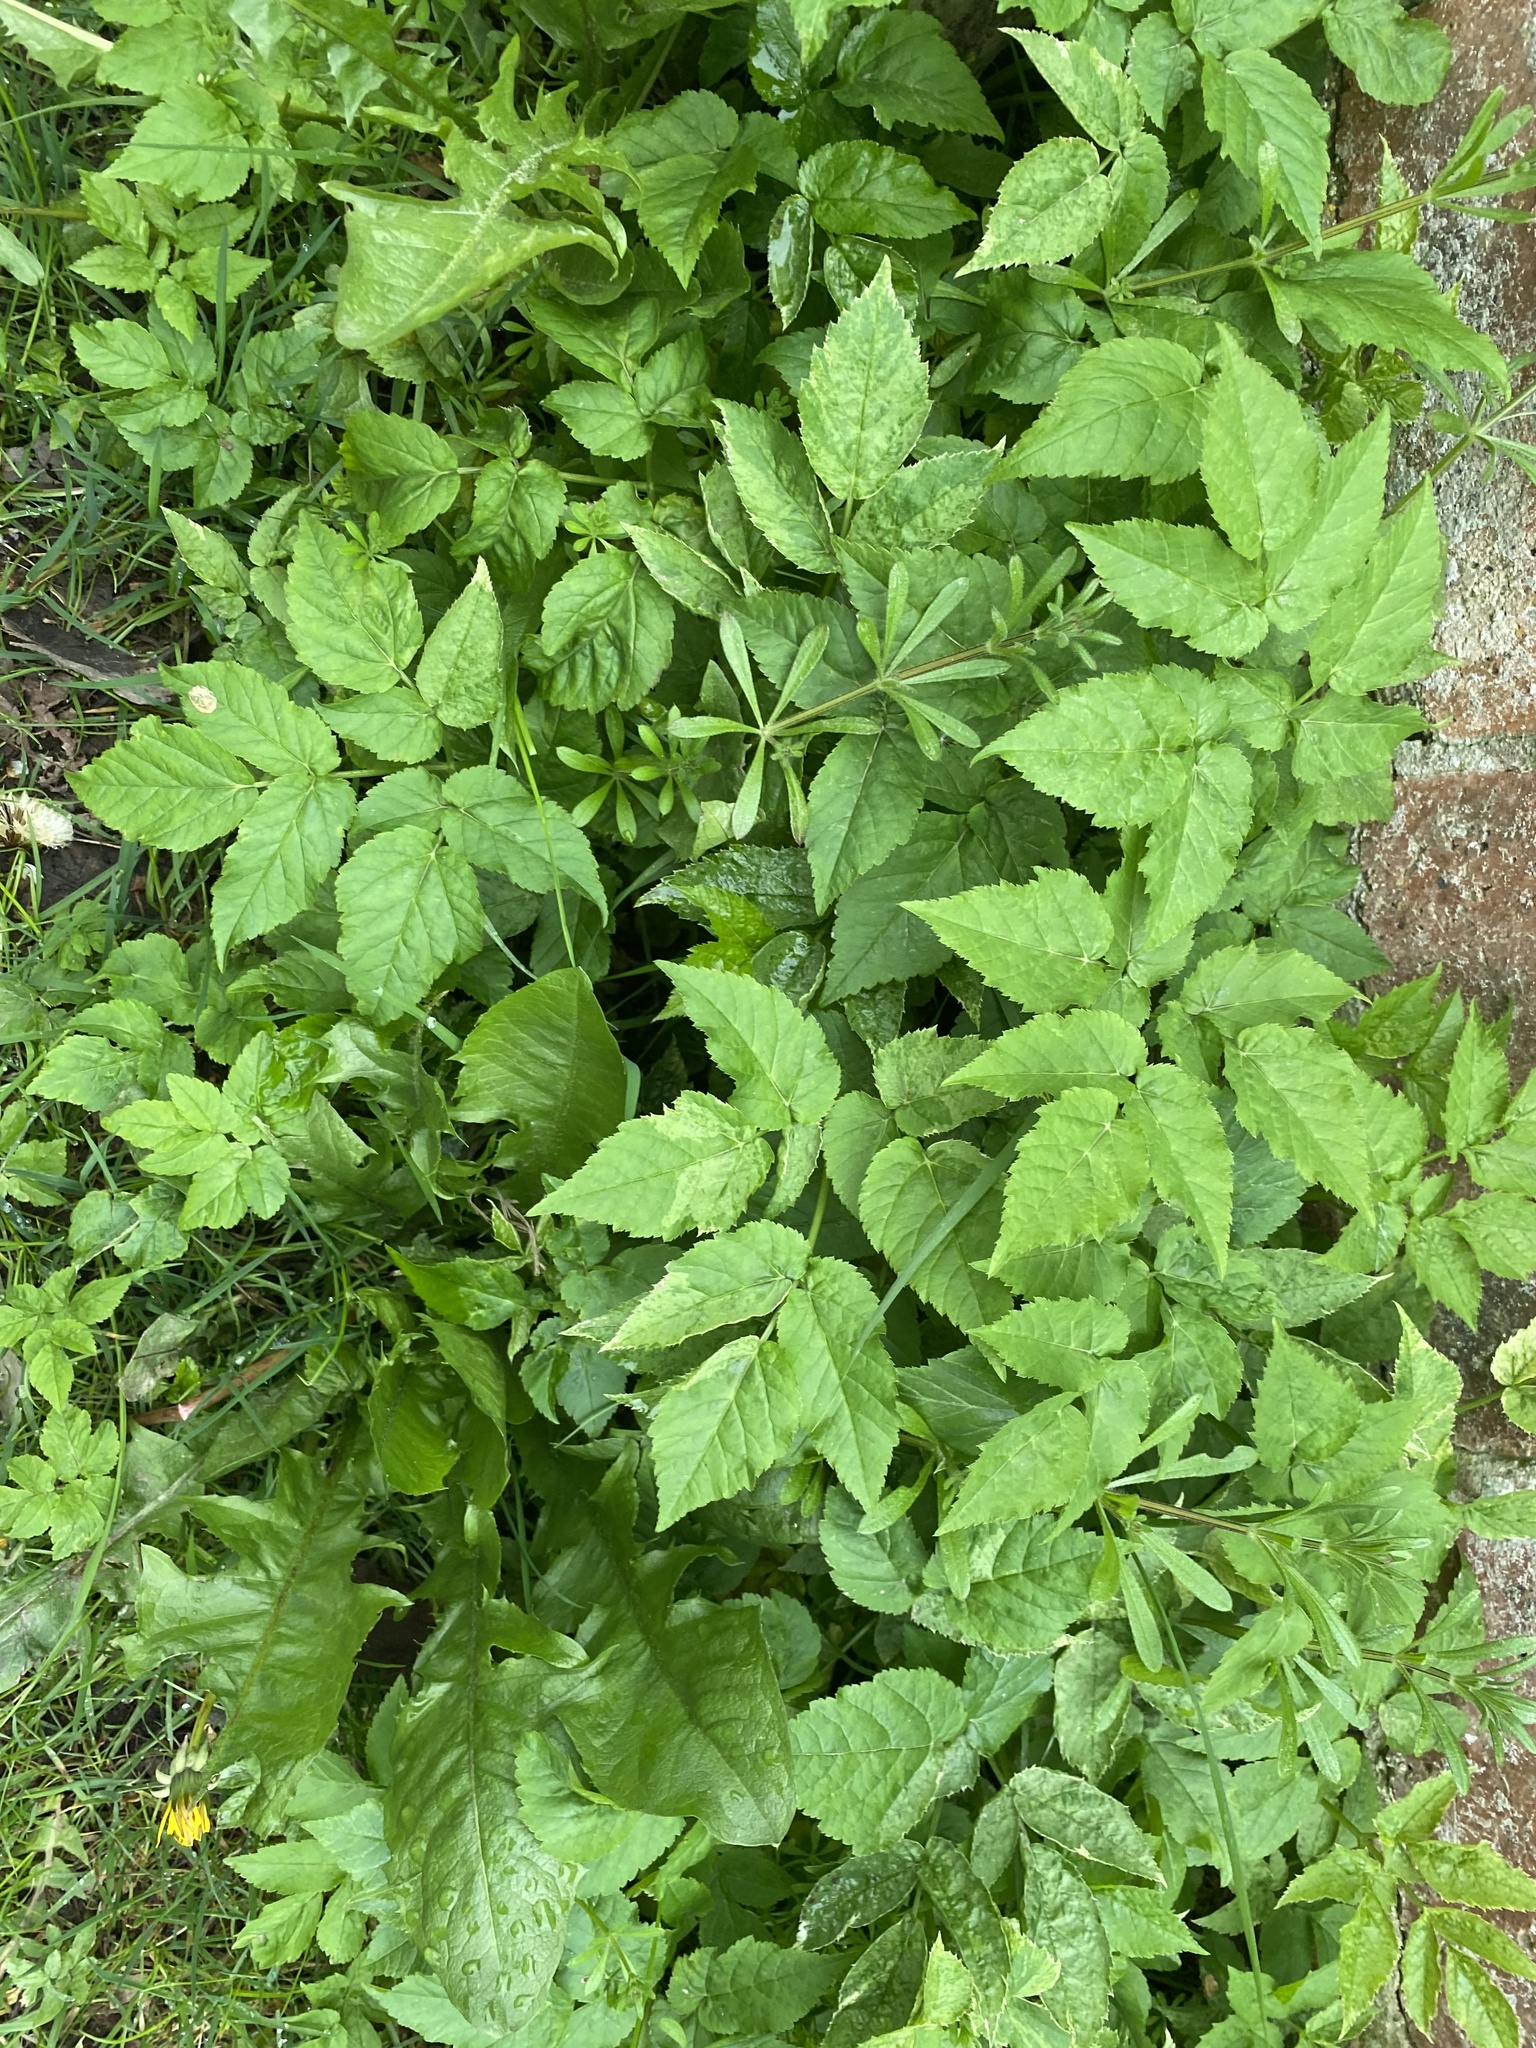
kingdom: Plantae
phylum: Tracheophyta
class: Magnoliopsida
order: Apiales
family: Apiaceae
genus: Aegopodium
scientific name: Aegopodium podagraria
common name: Ground-elder
